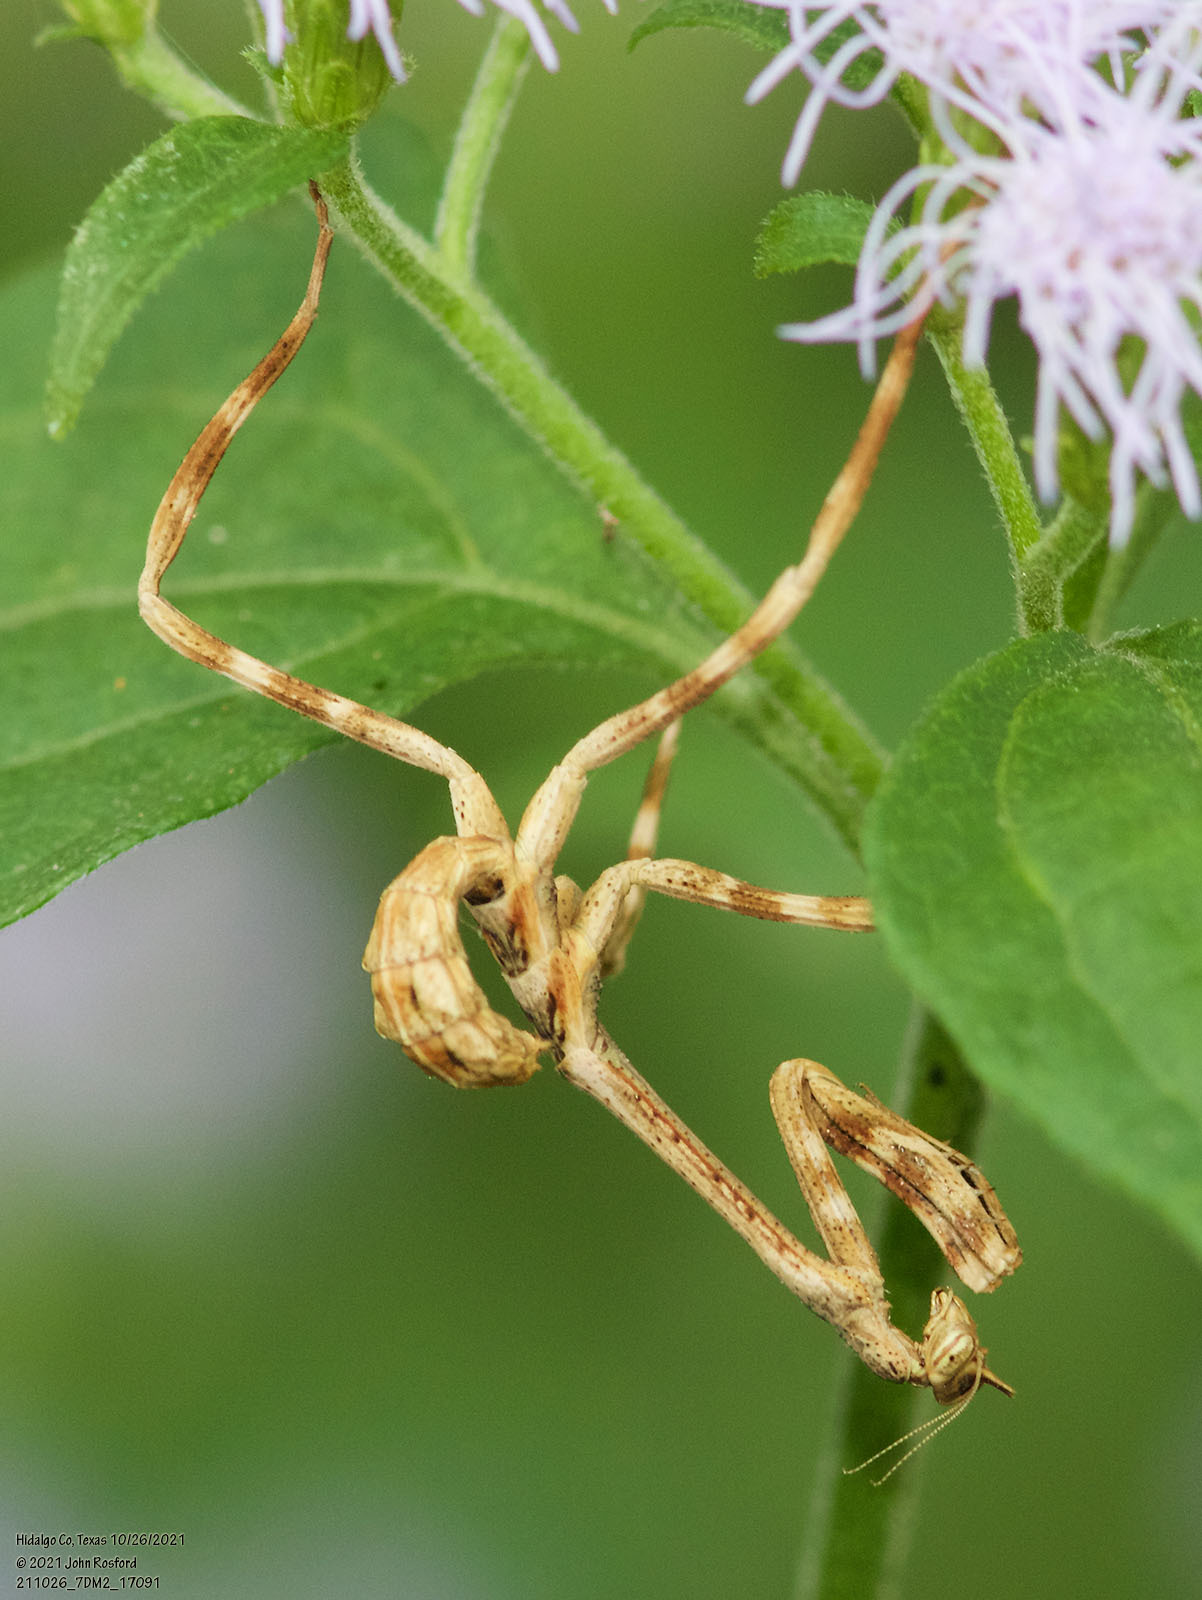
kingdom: Animalia
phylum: Arthropoda
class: Insecta
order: Mantodea
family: Mantidae
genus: Pseudovates
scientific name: Pseudovates chlorophaea
